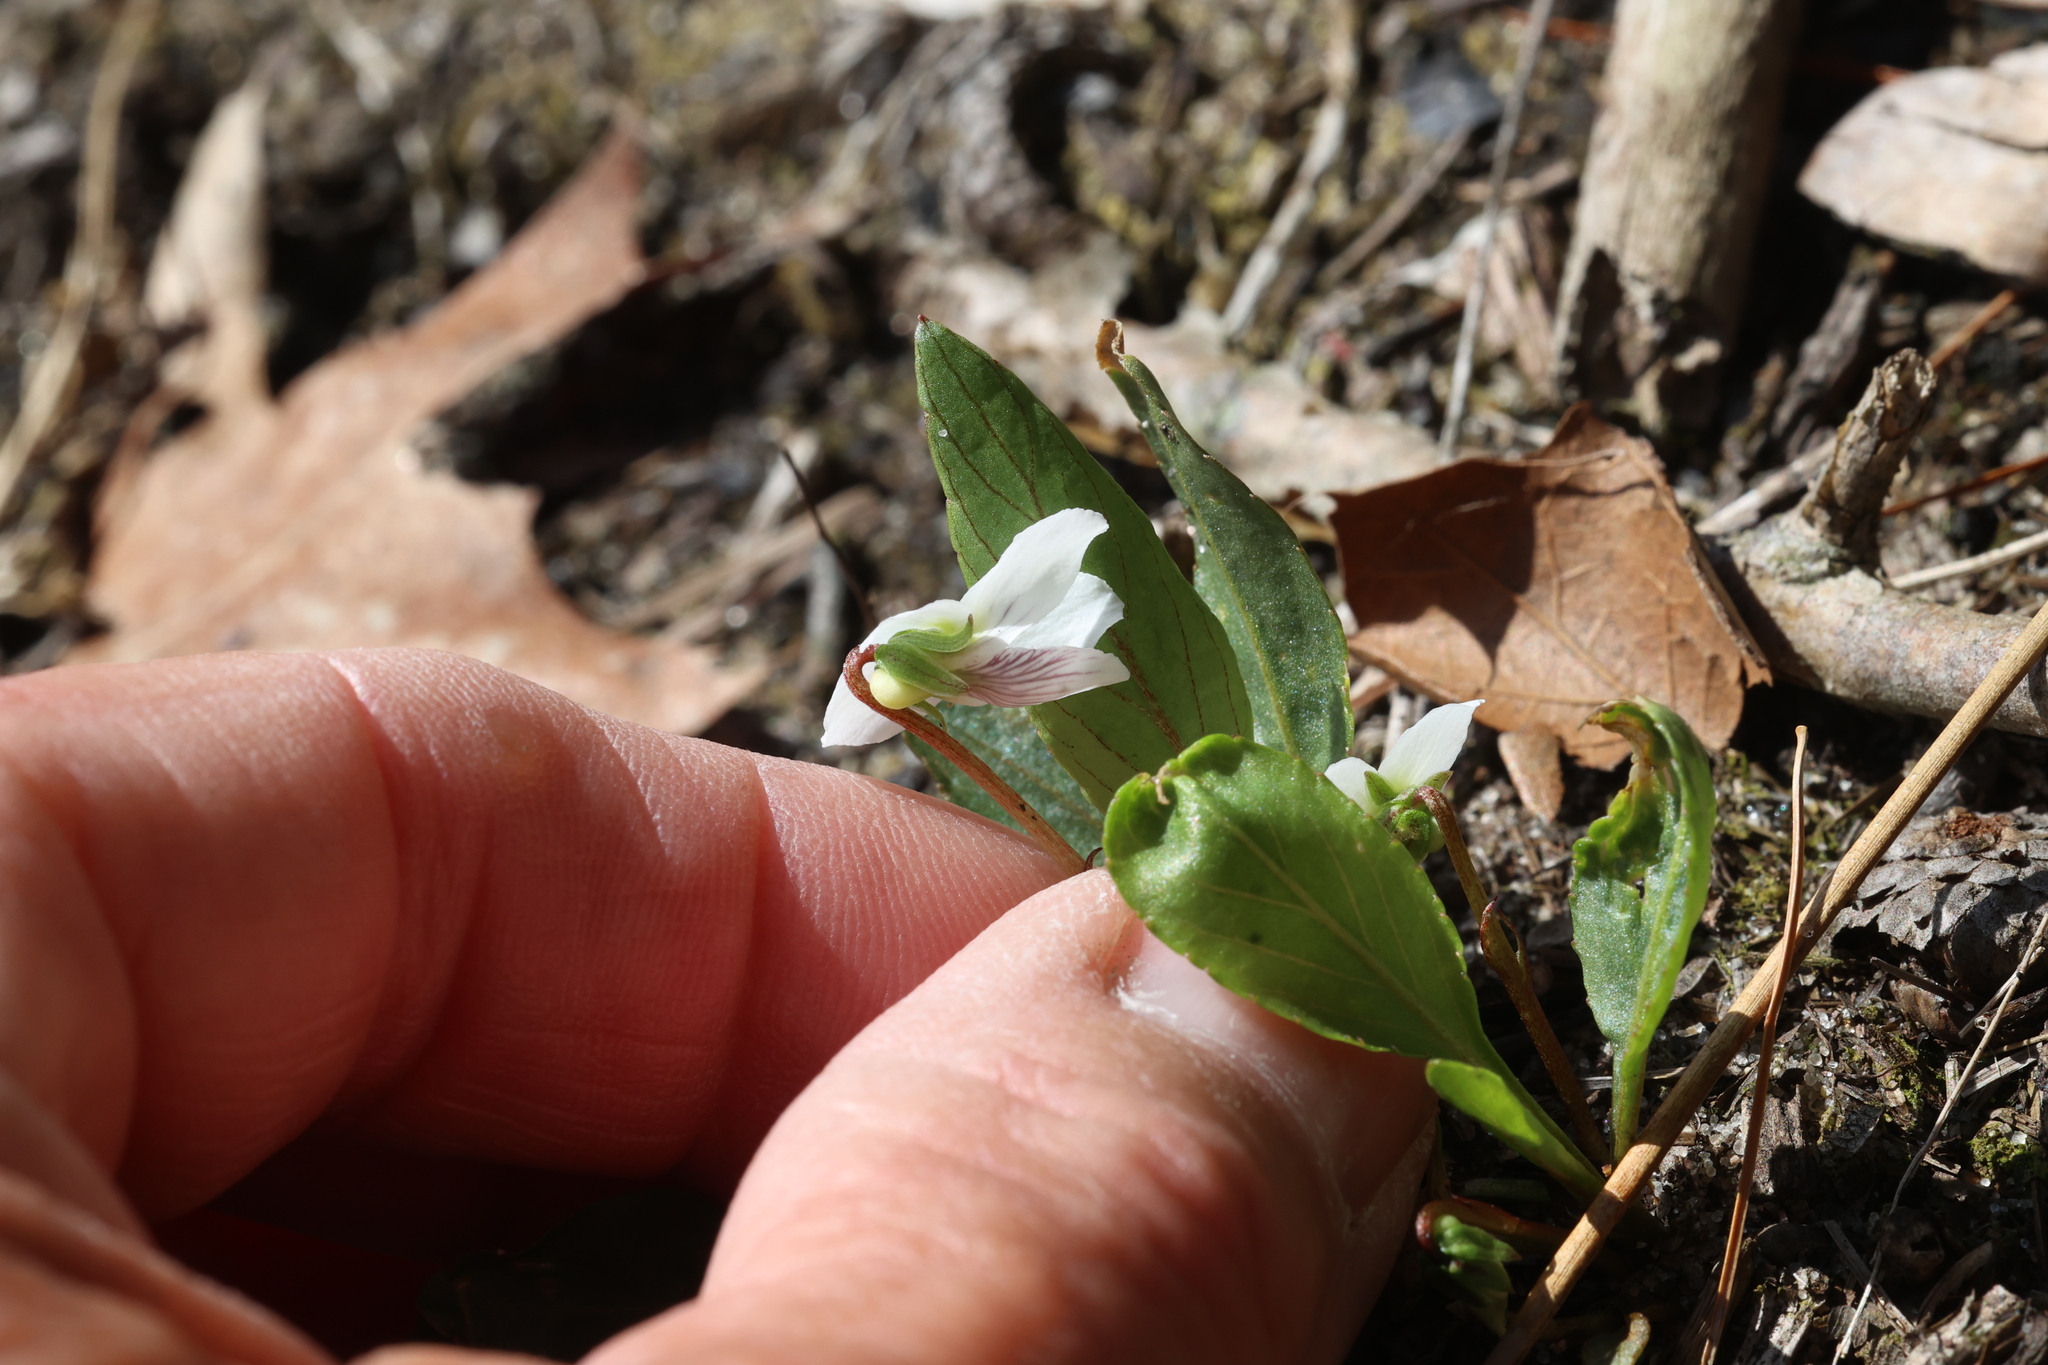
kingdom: Plantae
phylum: Tracheophyta
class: Magnoliopsida
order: Malpighiales
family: Violaceae
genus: Viola
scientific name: Viola lanceolata
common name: Bog white violet
